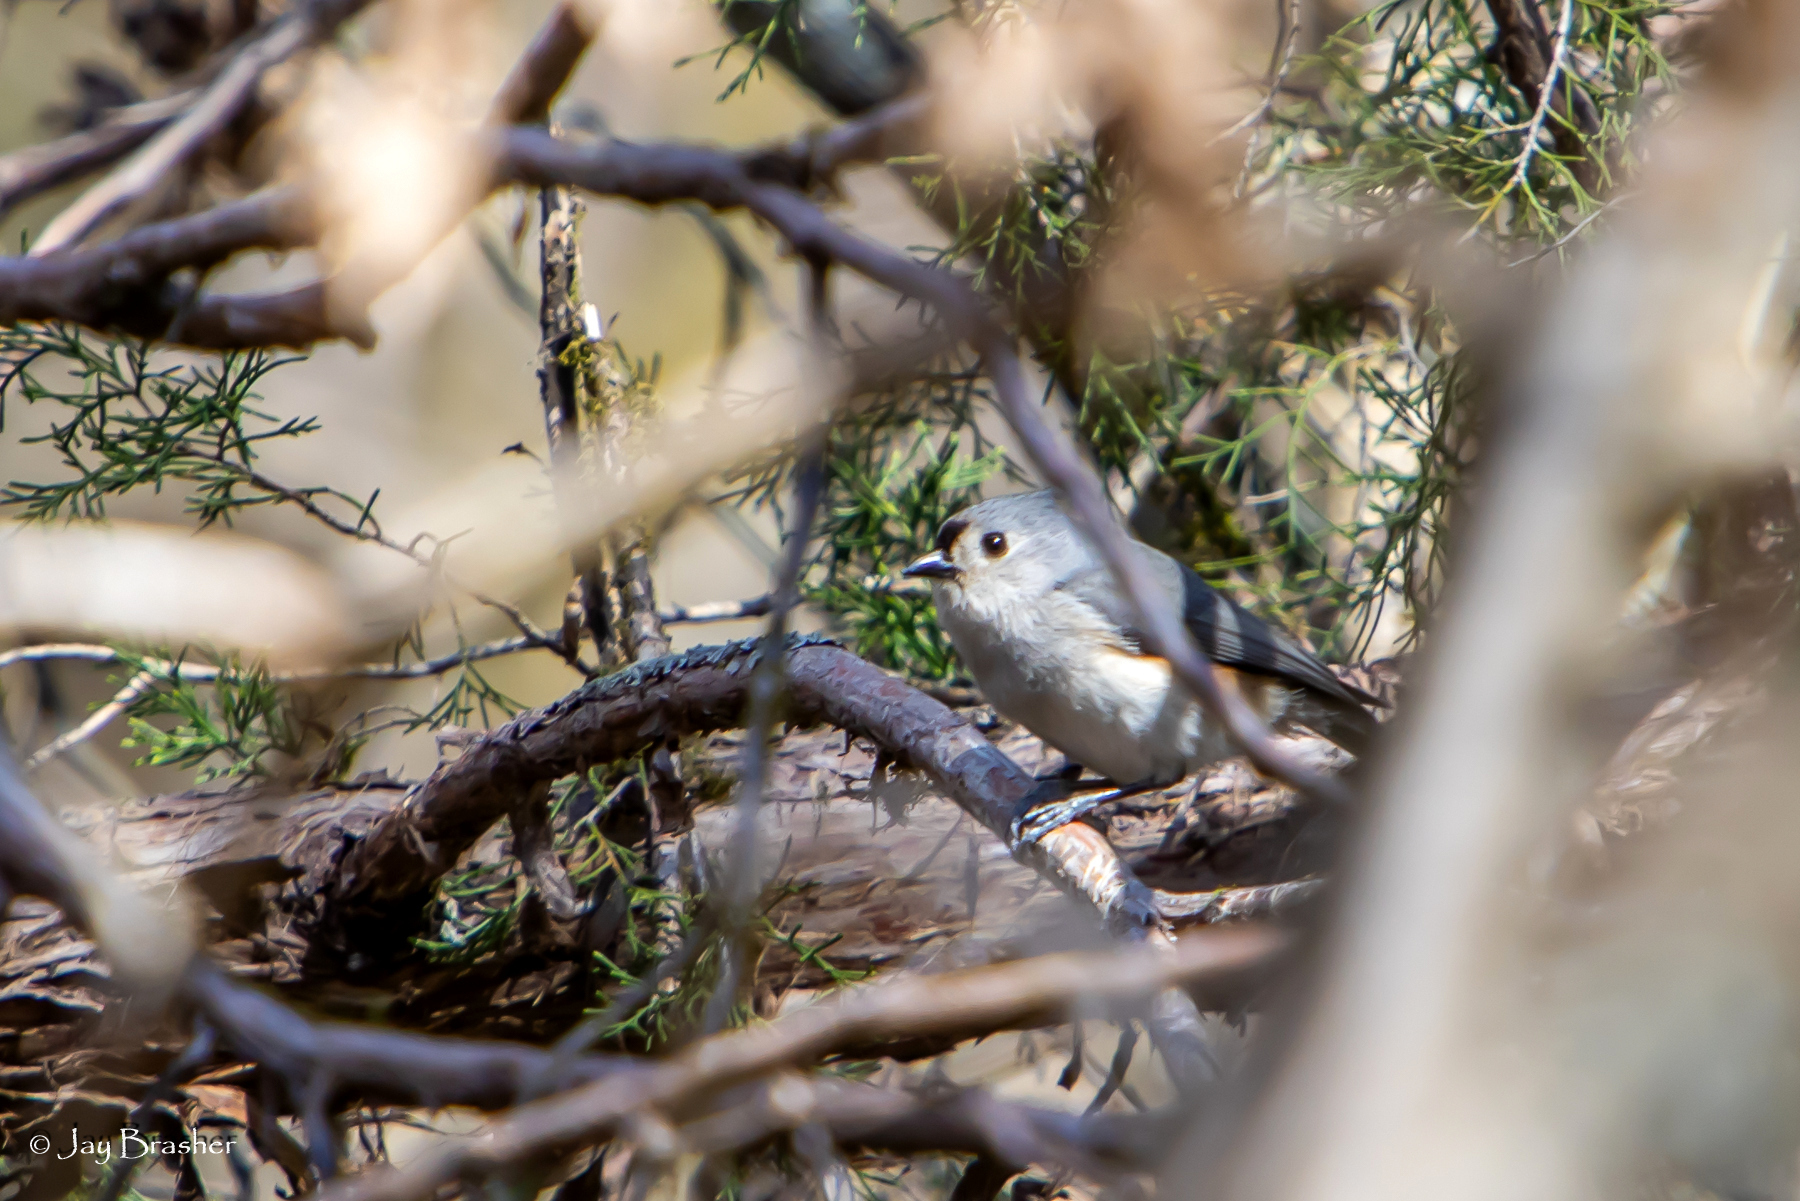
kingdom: Animalia
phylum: Chordata
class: Aves
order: Passeriformes
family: Paridae
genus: Baeolophus
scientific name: Baeolophus bicolor
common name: Tufted titmouse
